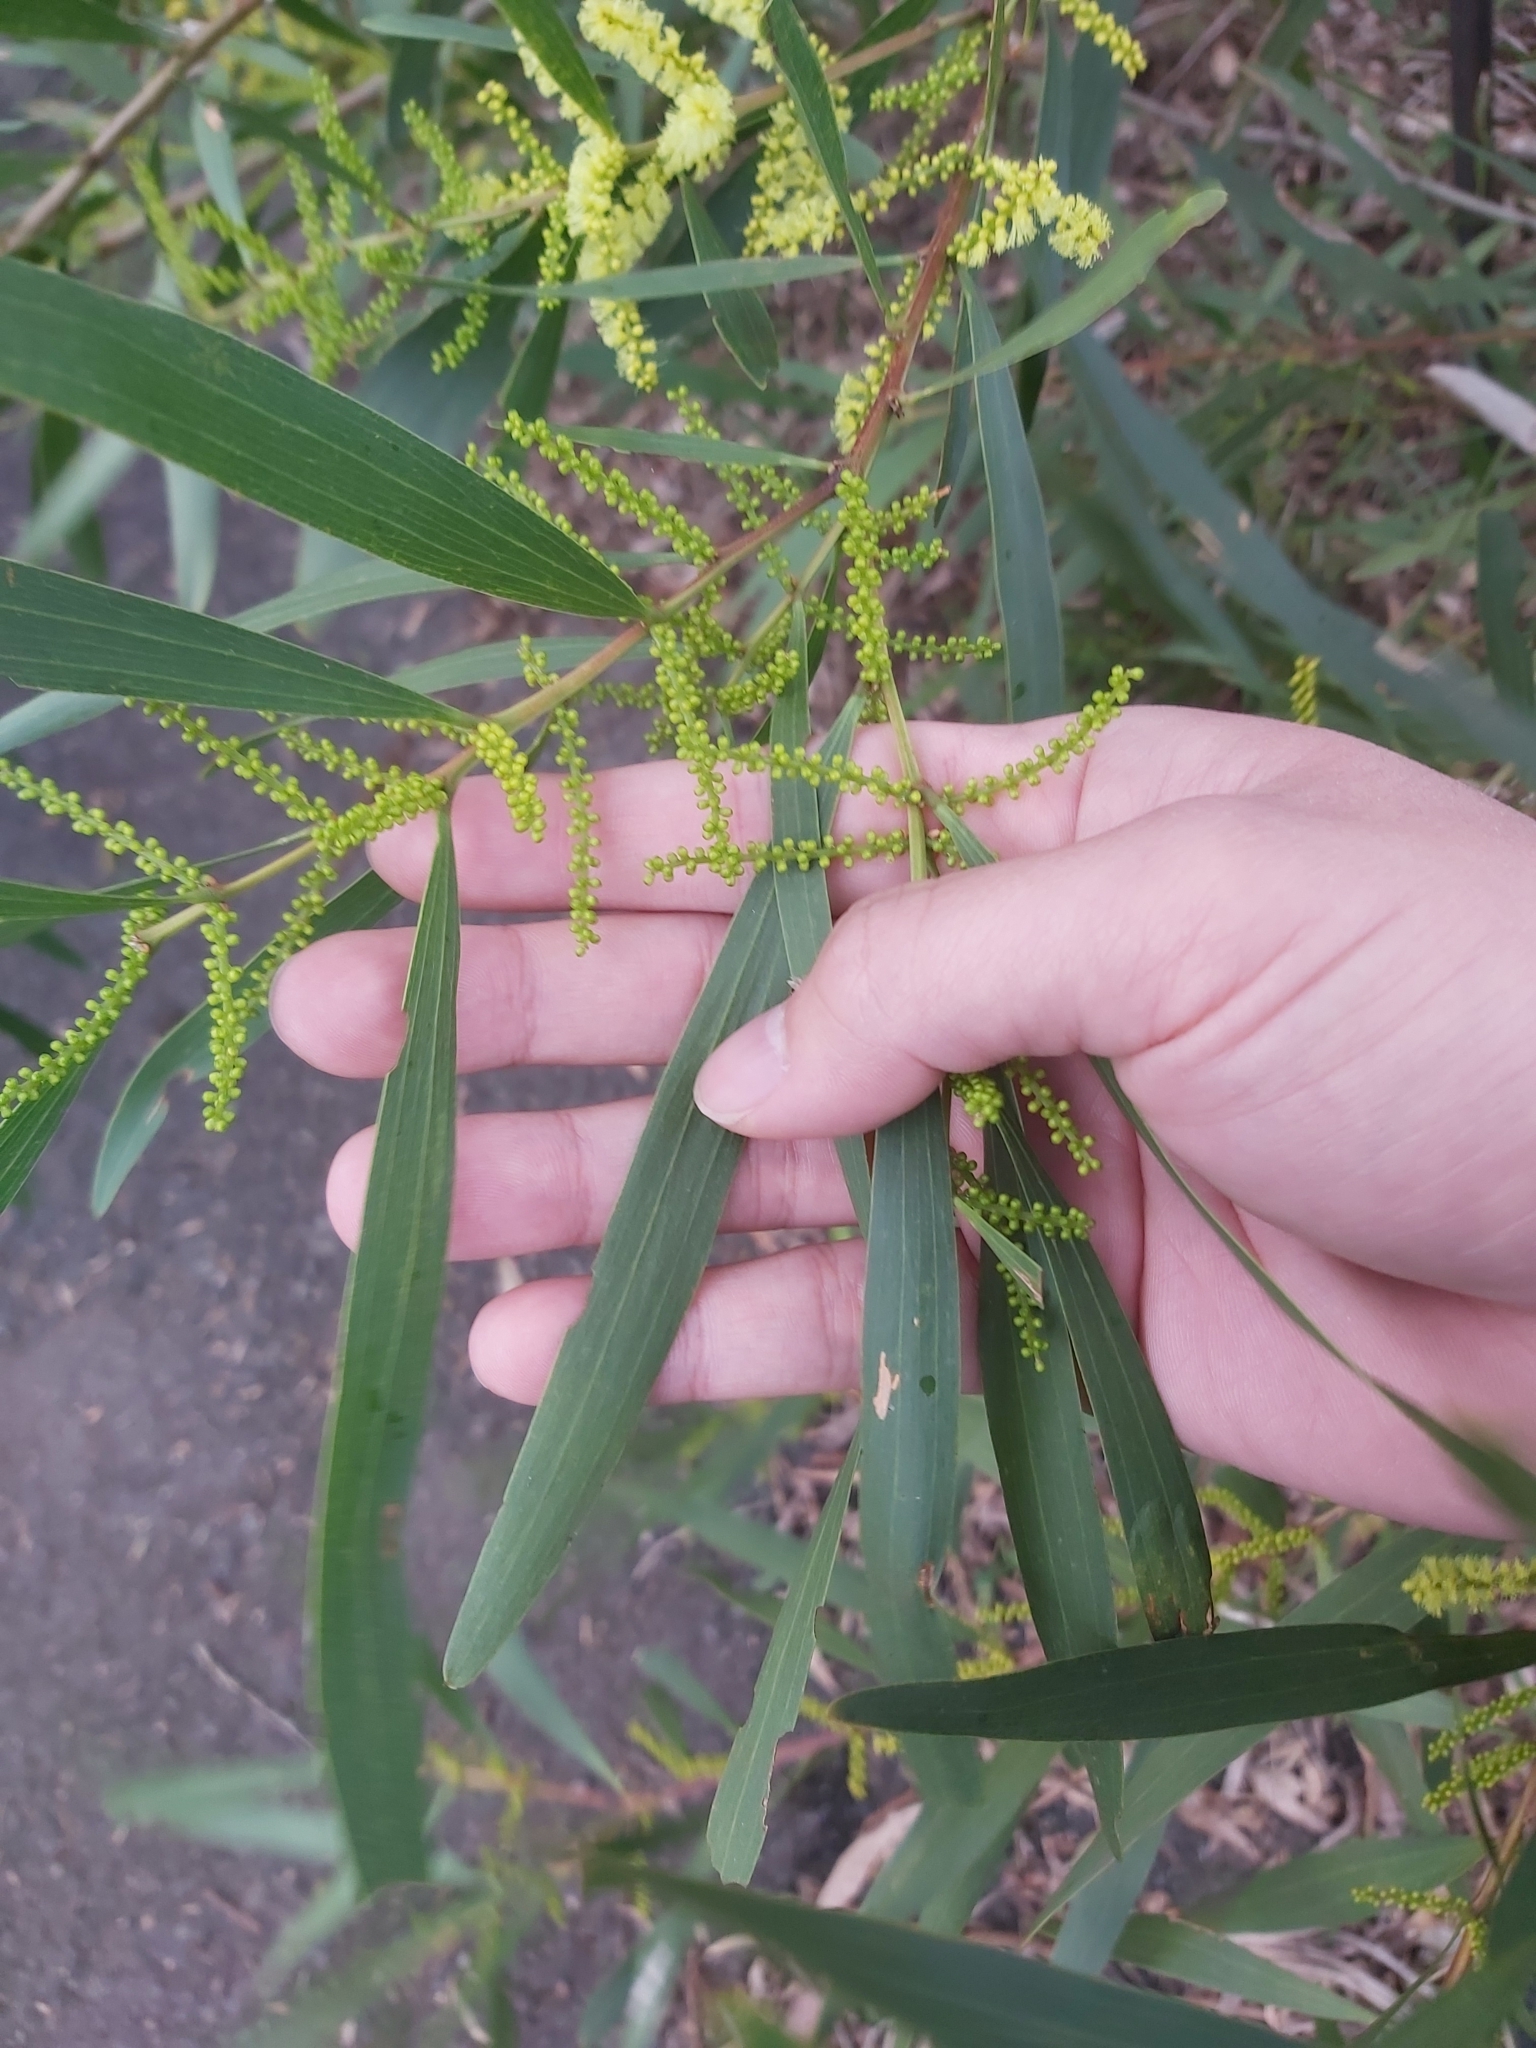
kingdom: Plantae
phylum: Tracheophyta
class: Magnoliopsida
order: Fabales
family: Fabaceae
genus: Acacia
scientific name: Acacia longifolia
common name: Sydney golden wattle
